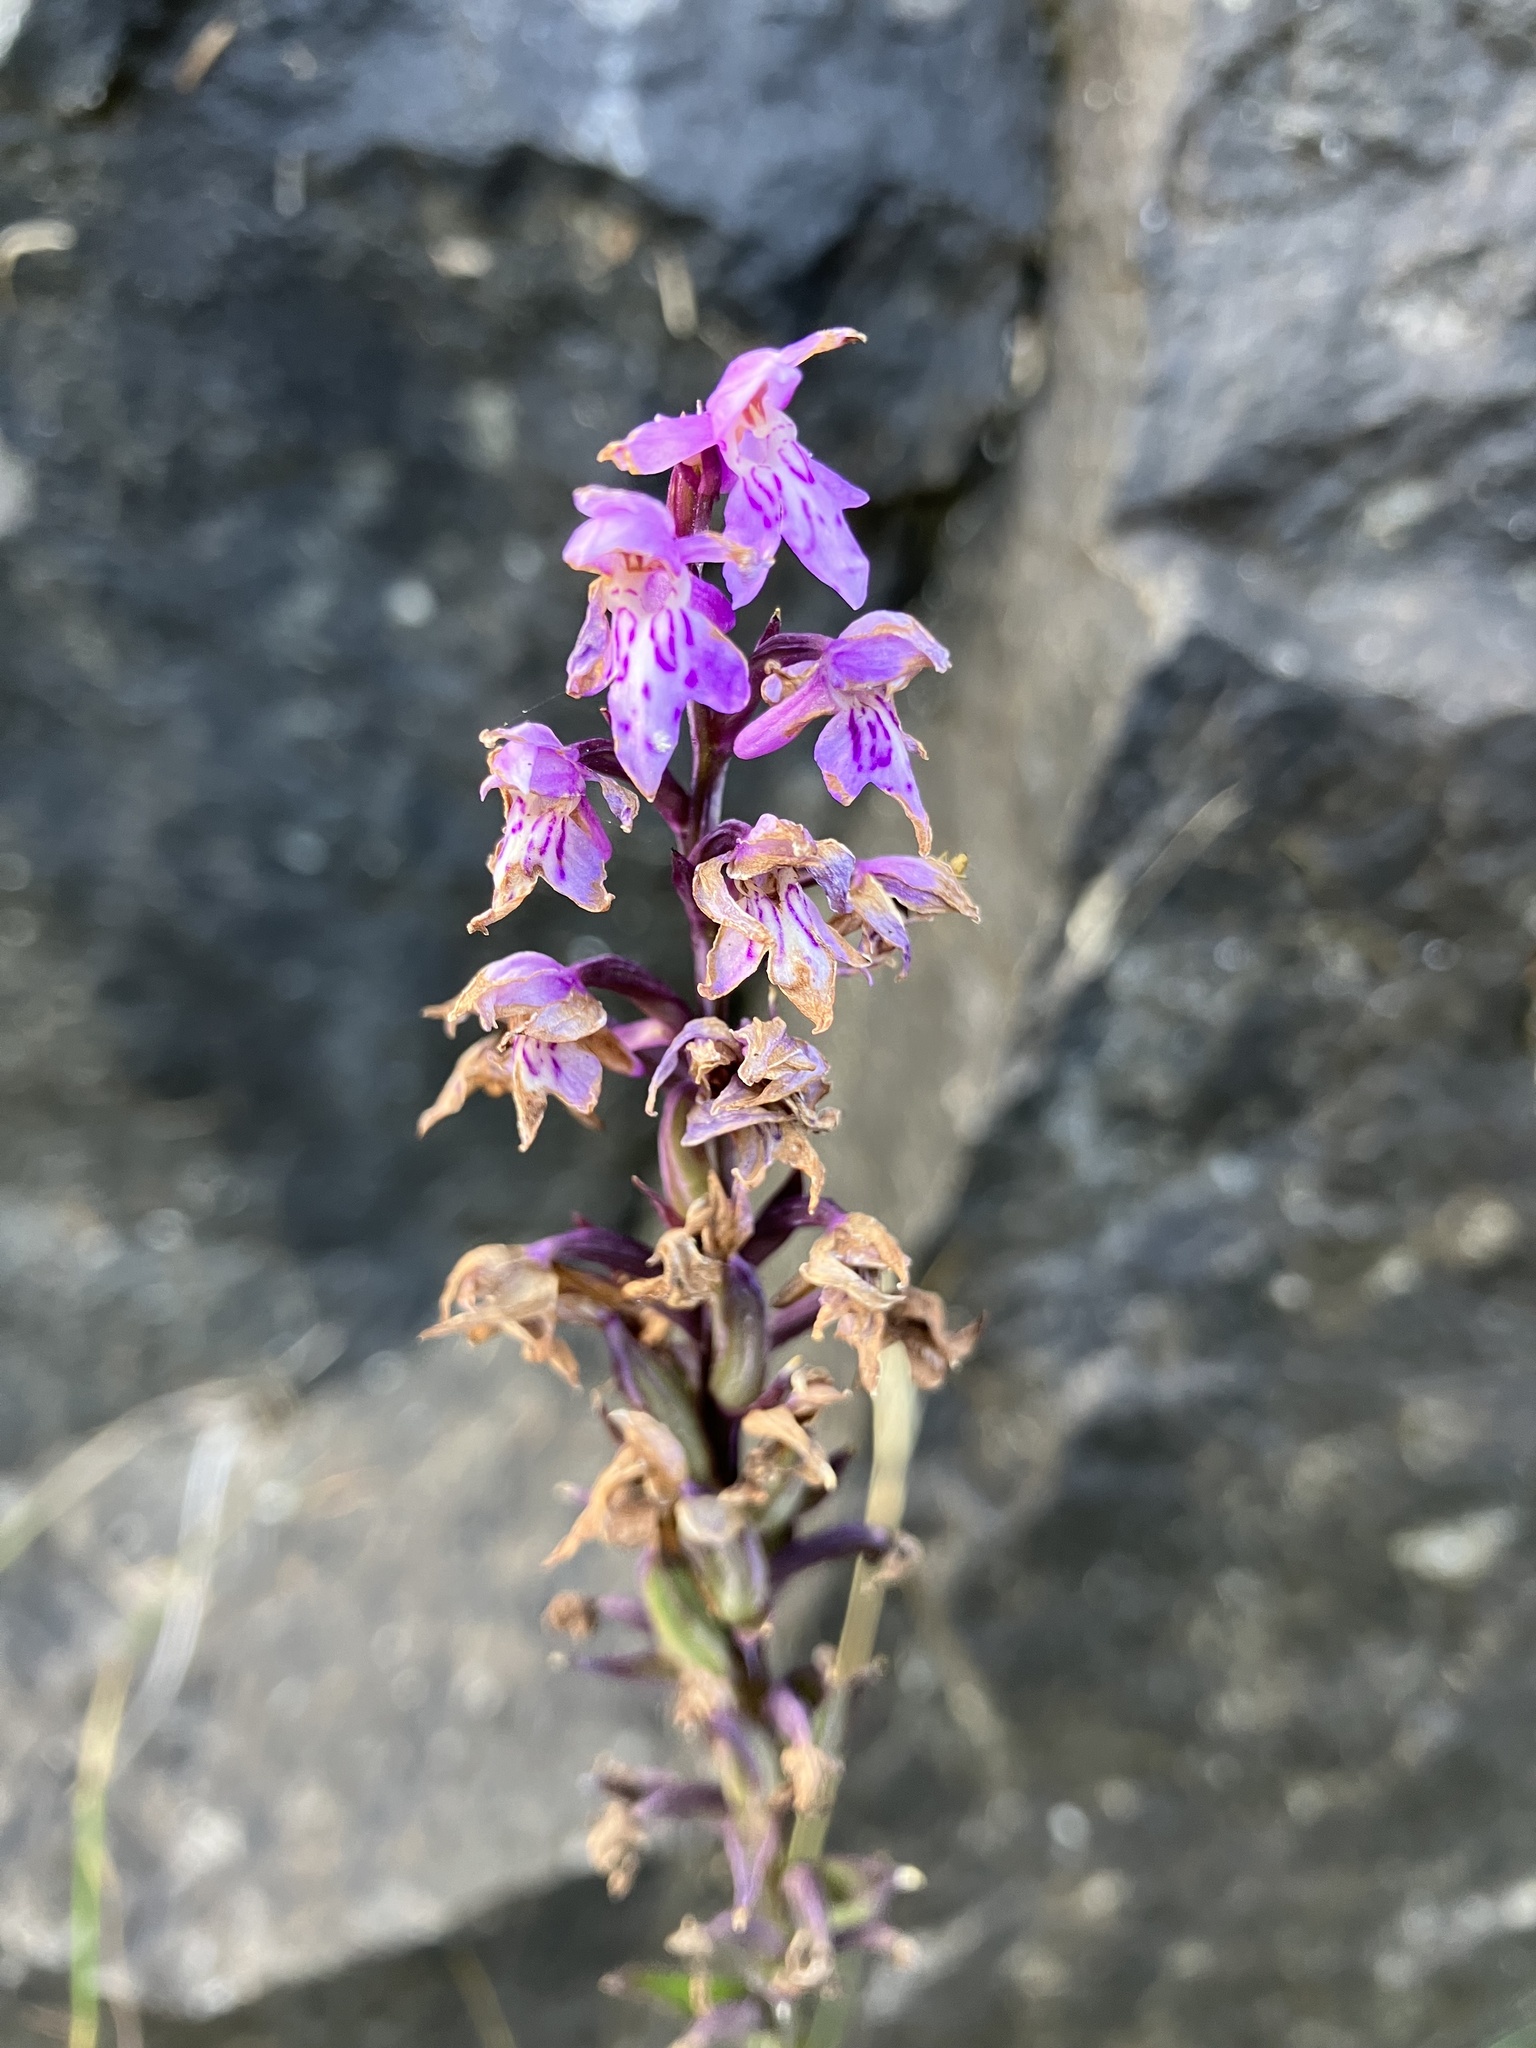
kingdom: Plantae
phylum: Tracheophyta
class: Liliopsida
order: Asparagales
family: Orchidaceae
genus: Dactylorhiza
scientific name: Dactylorhiza maculata
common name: Heath spotted-orchid
